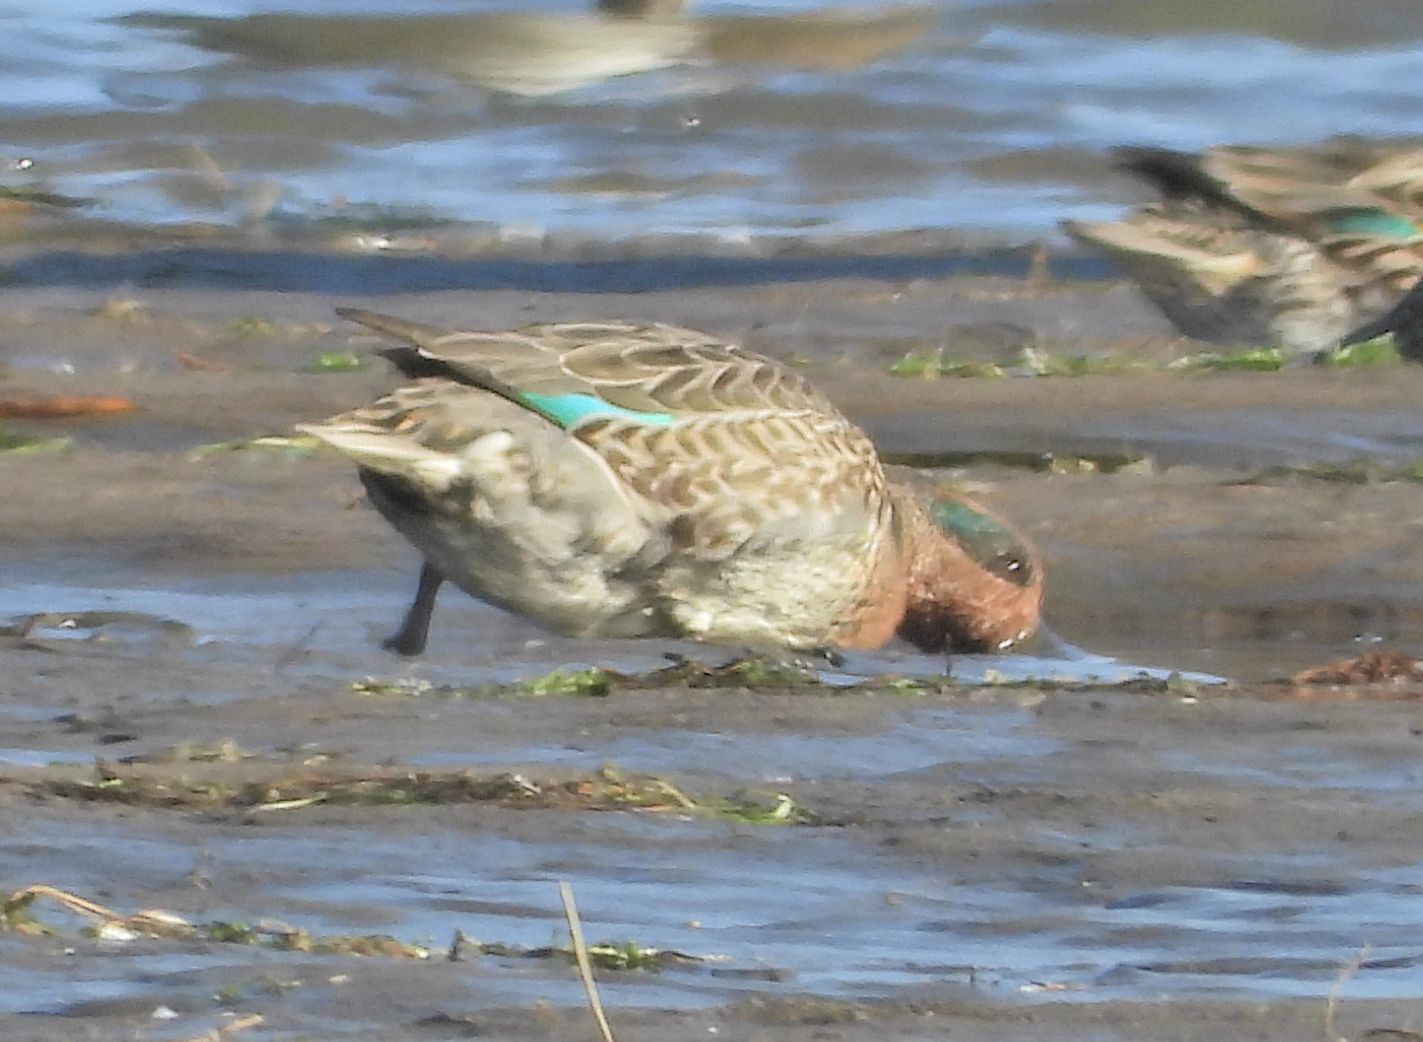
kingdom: Animalia
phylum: Chordata
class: Aves
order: Anseriformes
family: Anatidae
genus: Anas
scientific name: Anas crecca
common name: Eurasian teal
